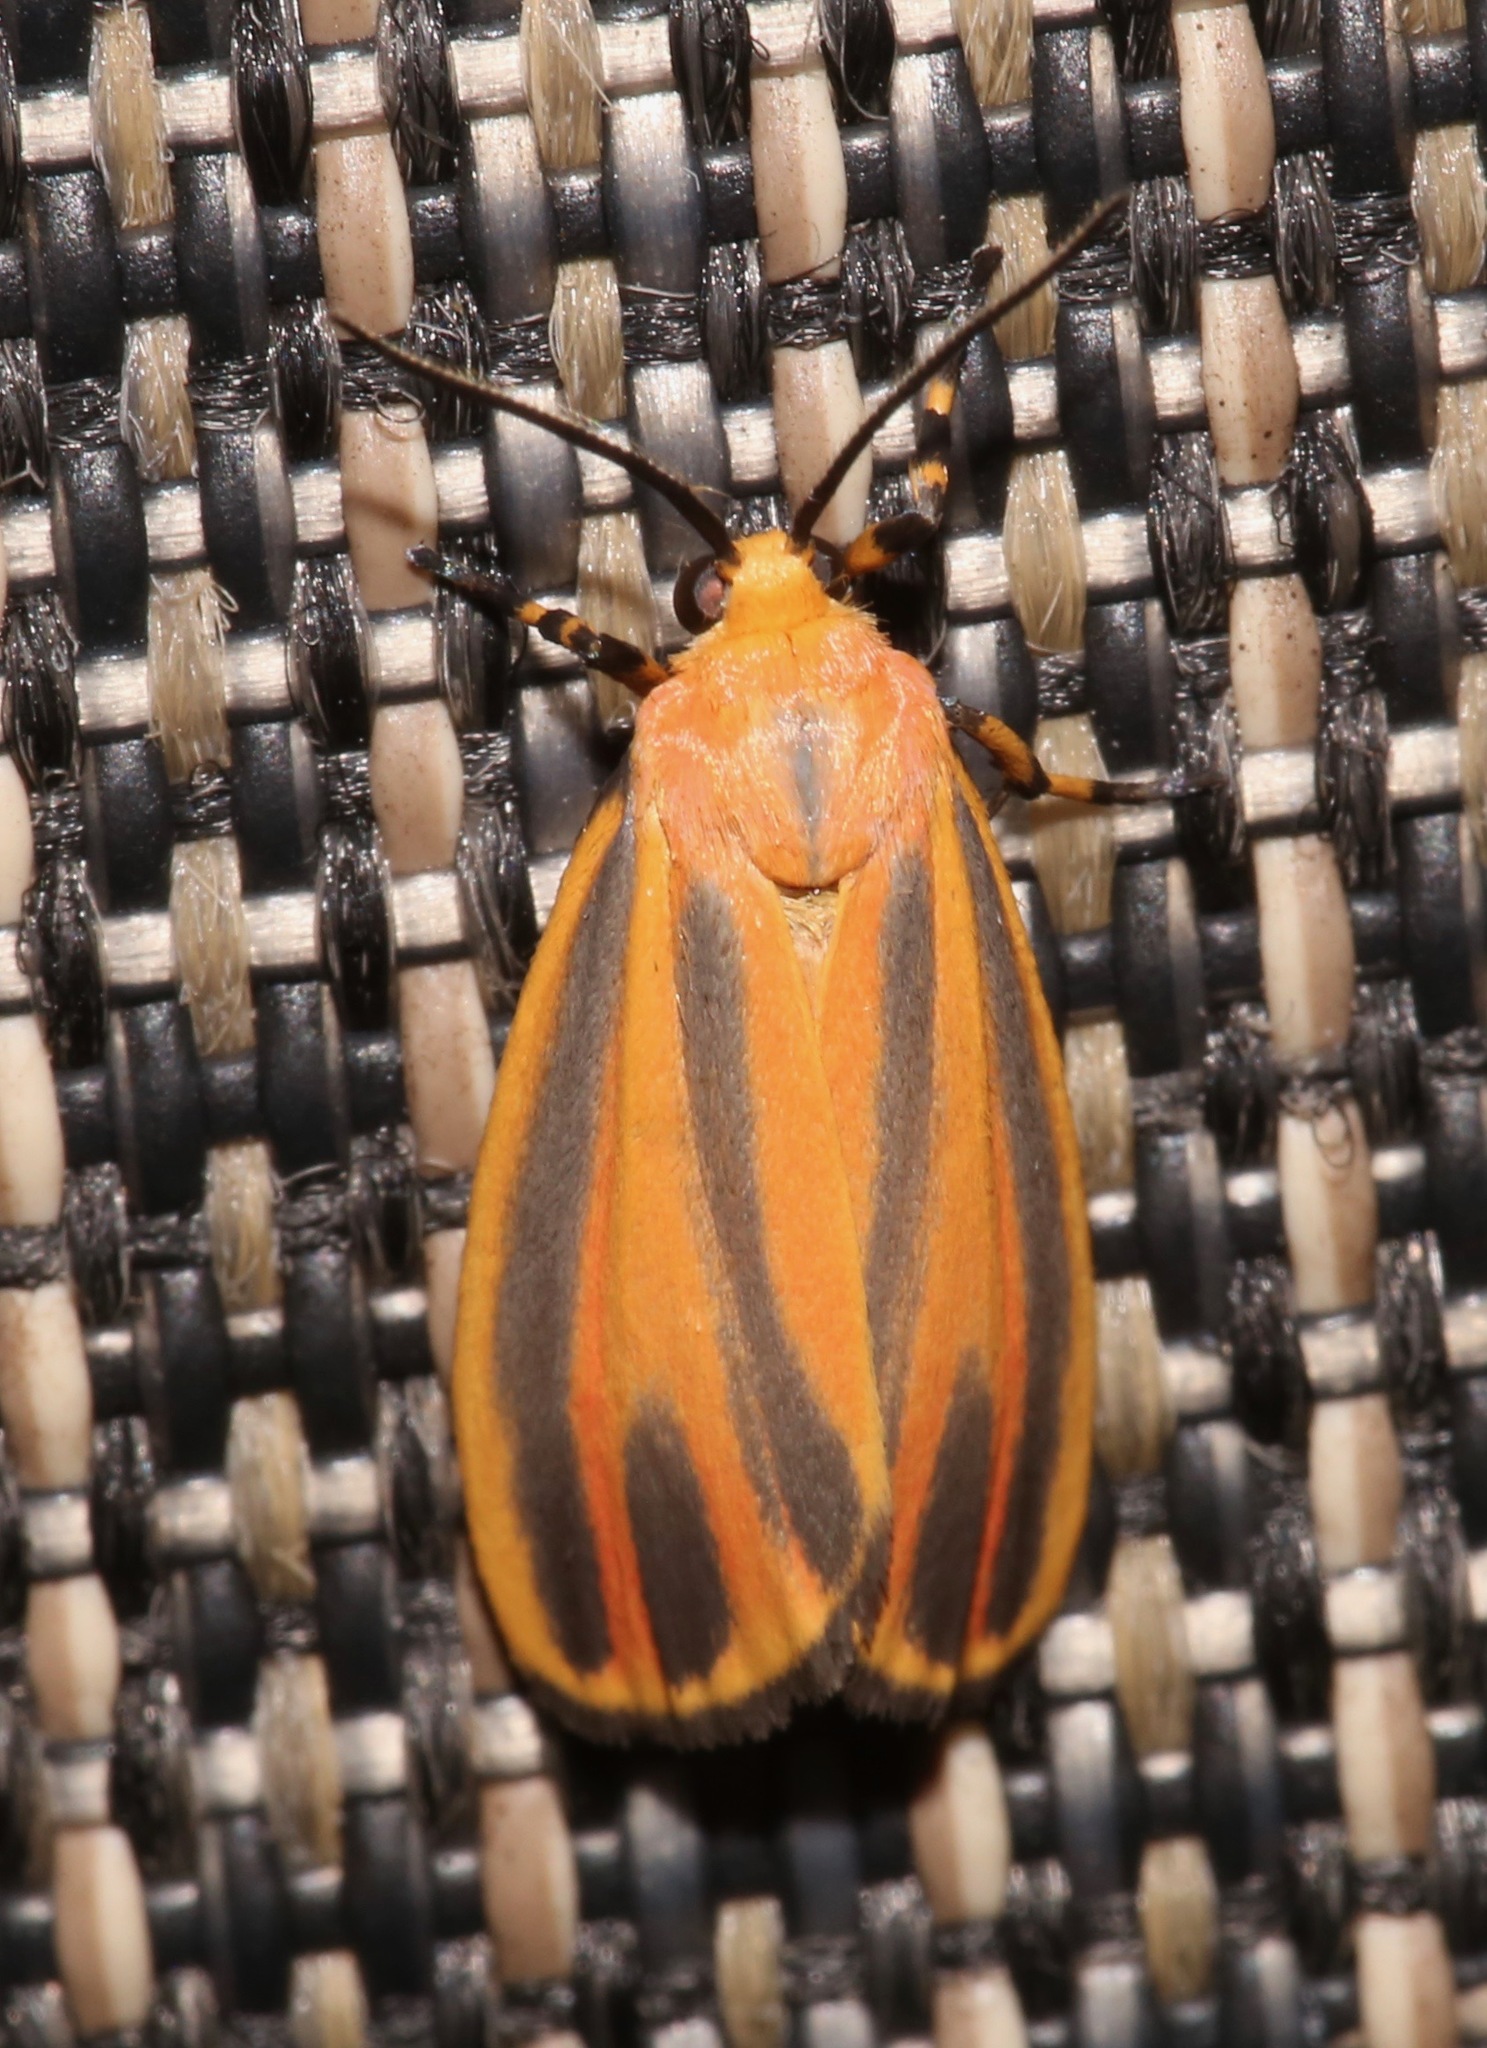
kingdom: Animalia
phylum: Arthropoda
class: Insecta
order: Lepidoptera
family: Erebidae
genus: Hypoprepia
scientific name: Hypoprepia fucosa
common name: Painted lichen moth
